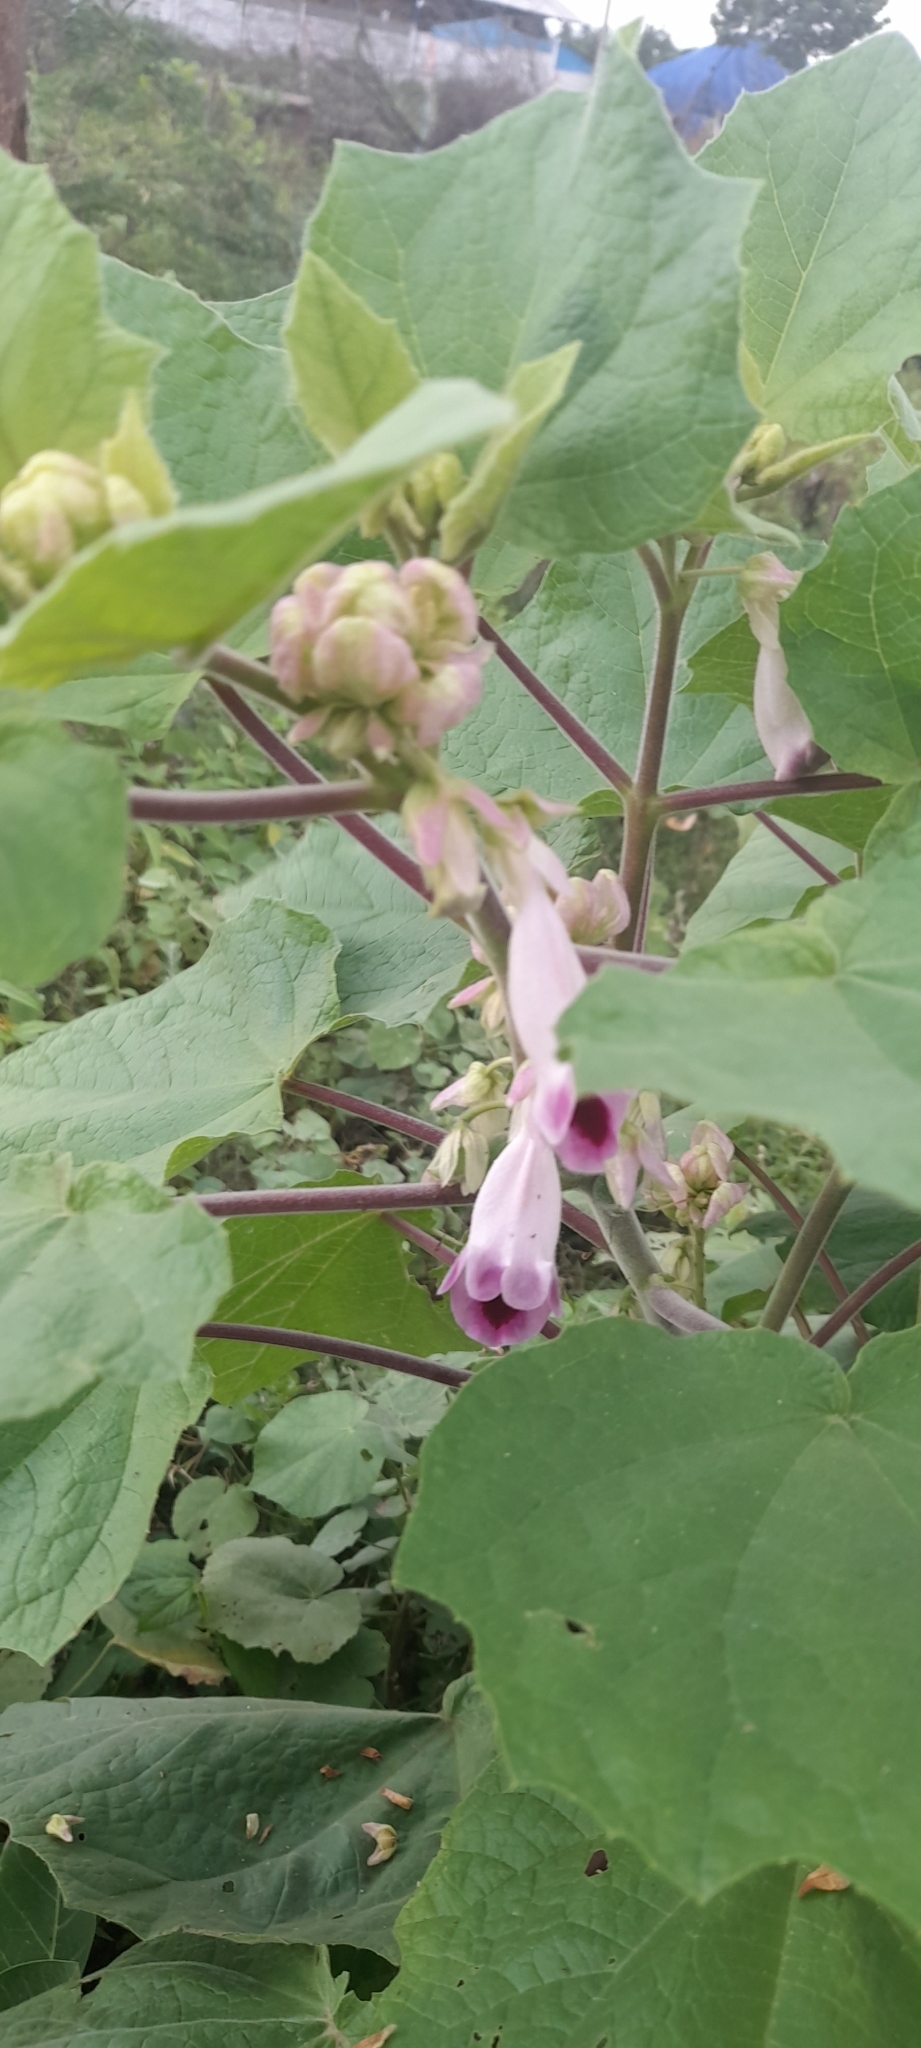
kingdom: Plantae
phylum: Tracheophyta
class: Magnoliopsida
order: Lamiales
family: Martyniaceae
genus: Martynia
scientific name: Martynia annua
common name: Tiger's-claw
